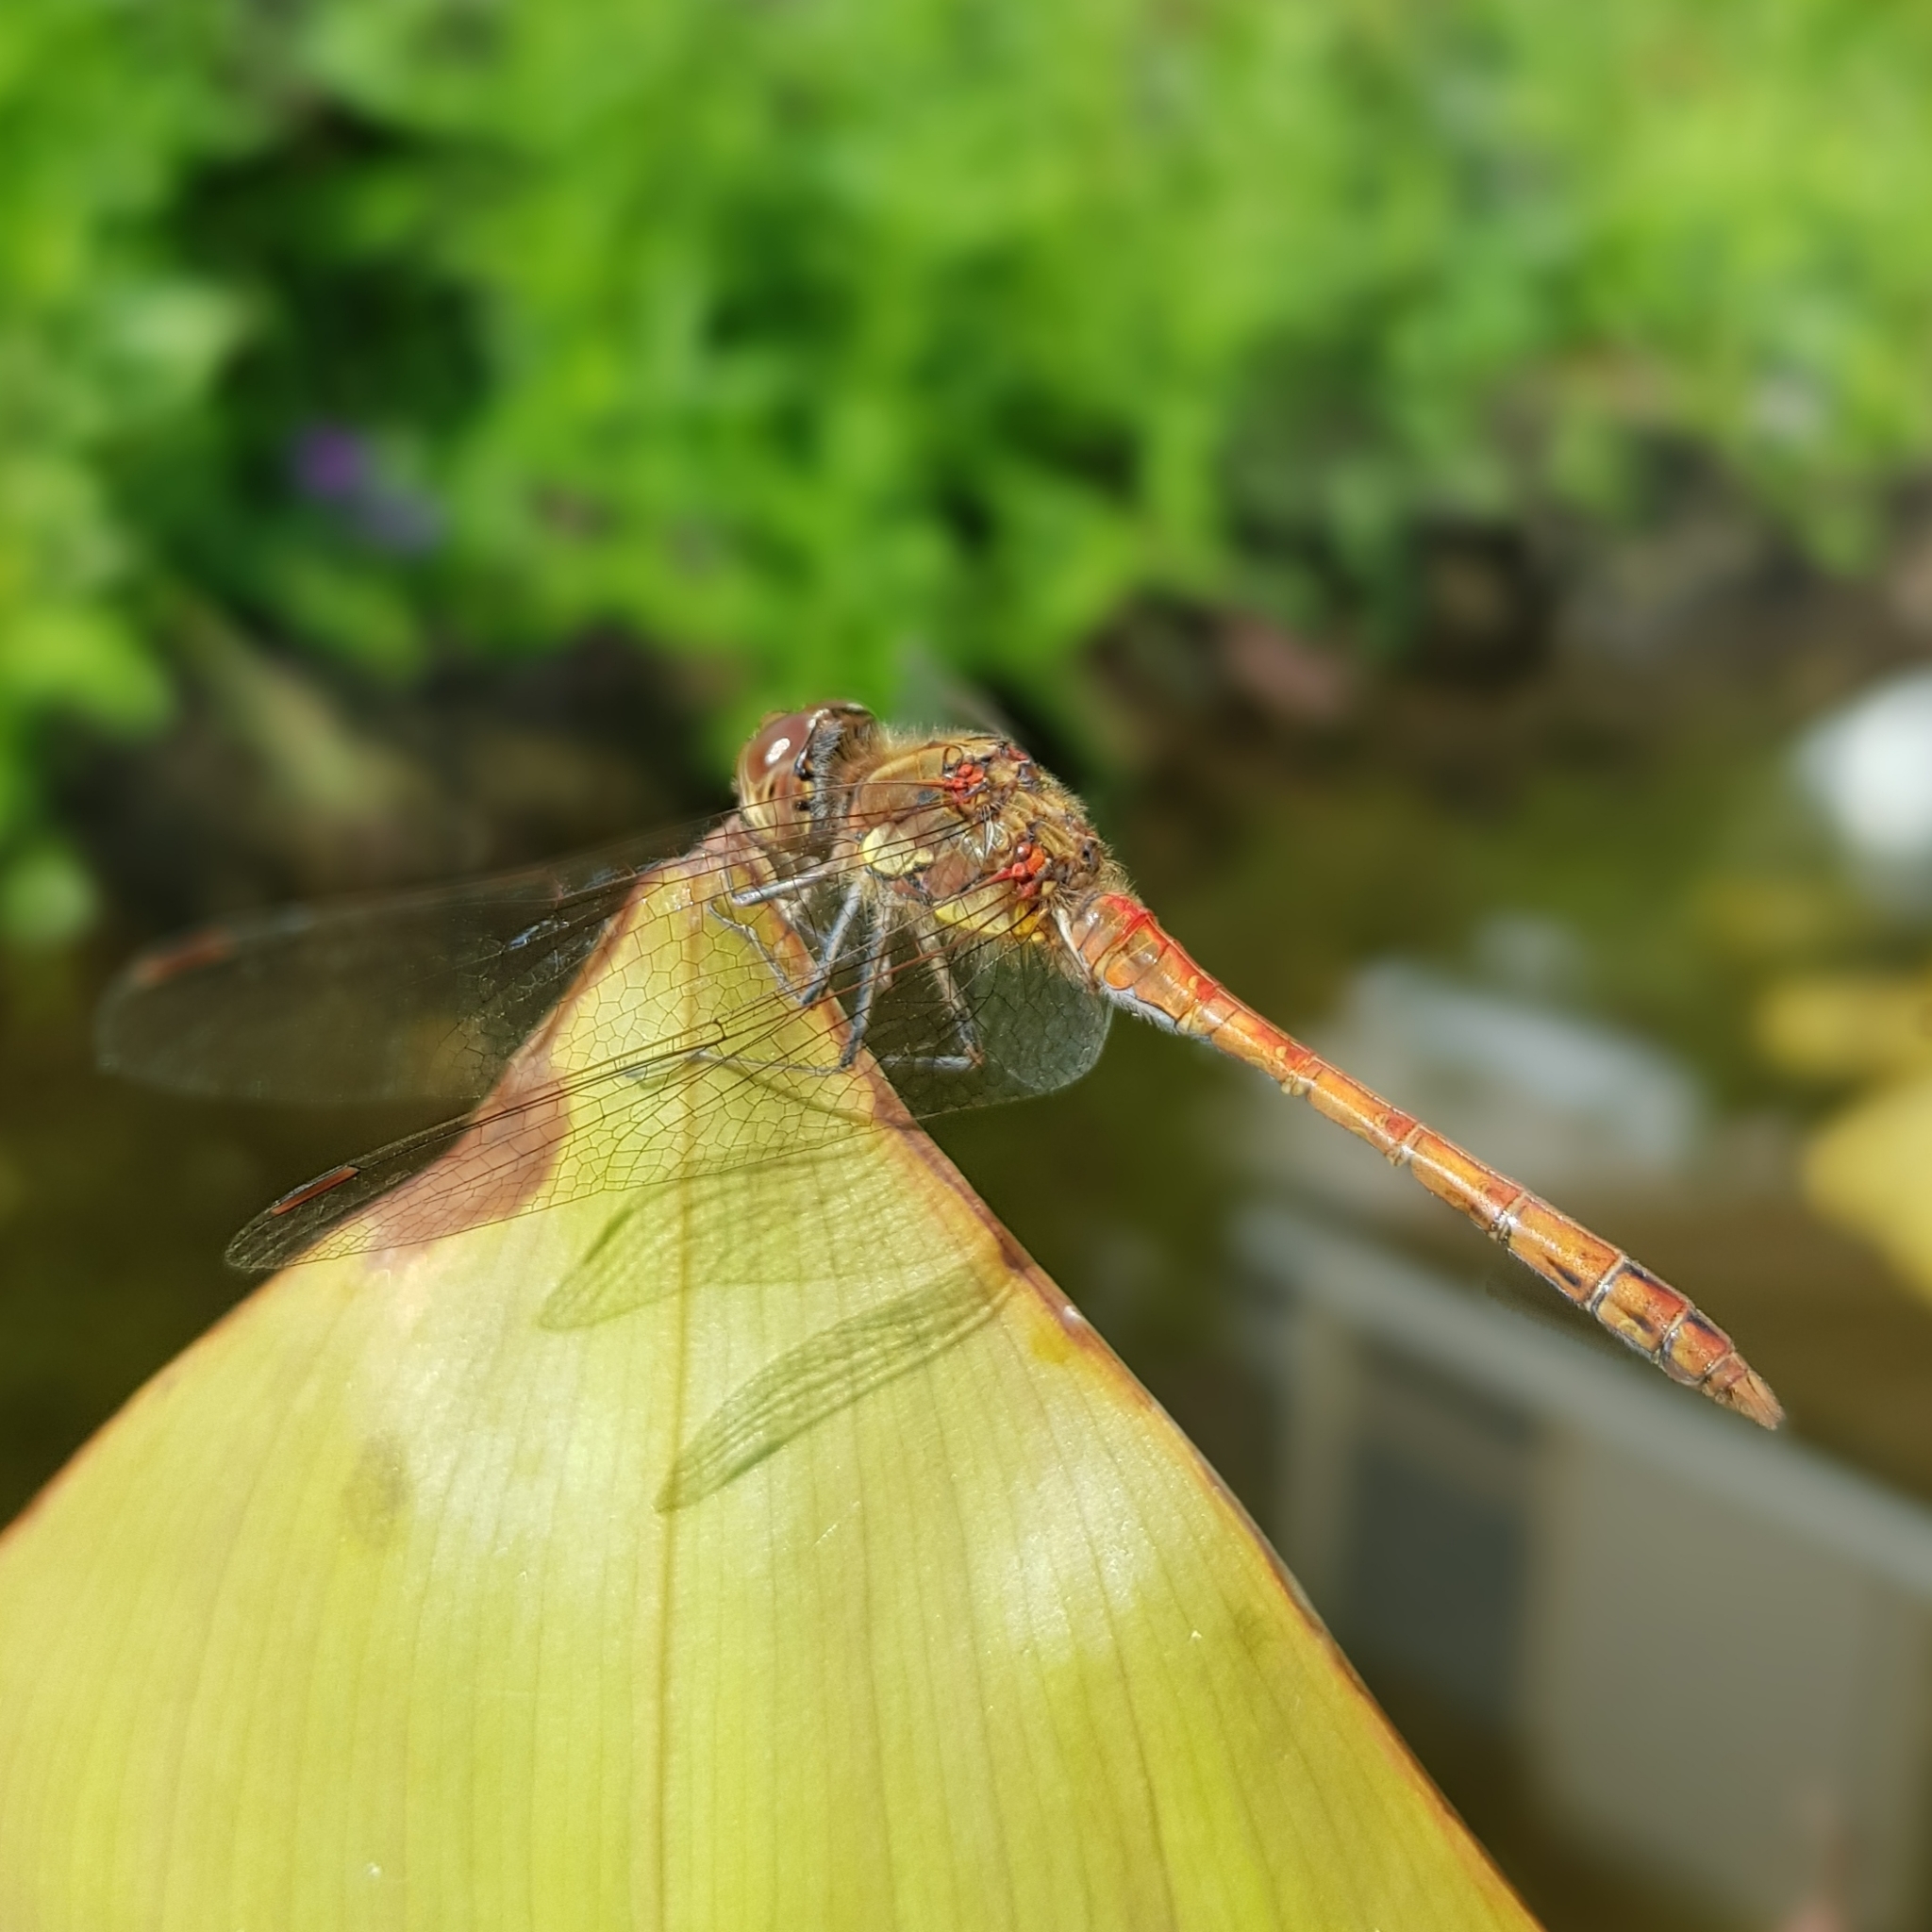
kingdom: Animalia
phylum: Arthropoda
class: Insecta
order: Odonata
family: Libellulidae
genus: Sympetrum
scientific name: Sympetrum striolatum
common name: Common darter
